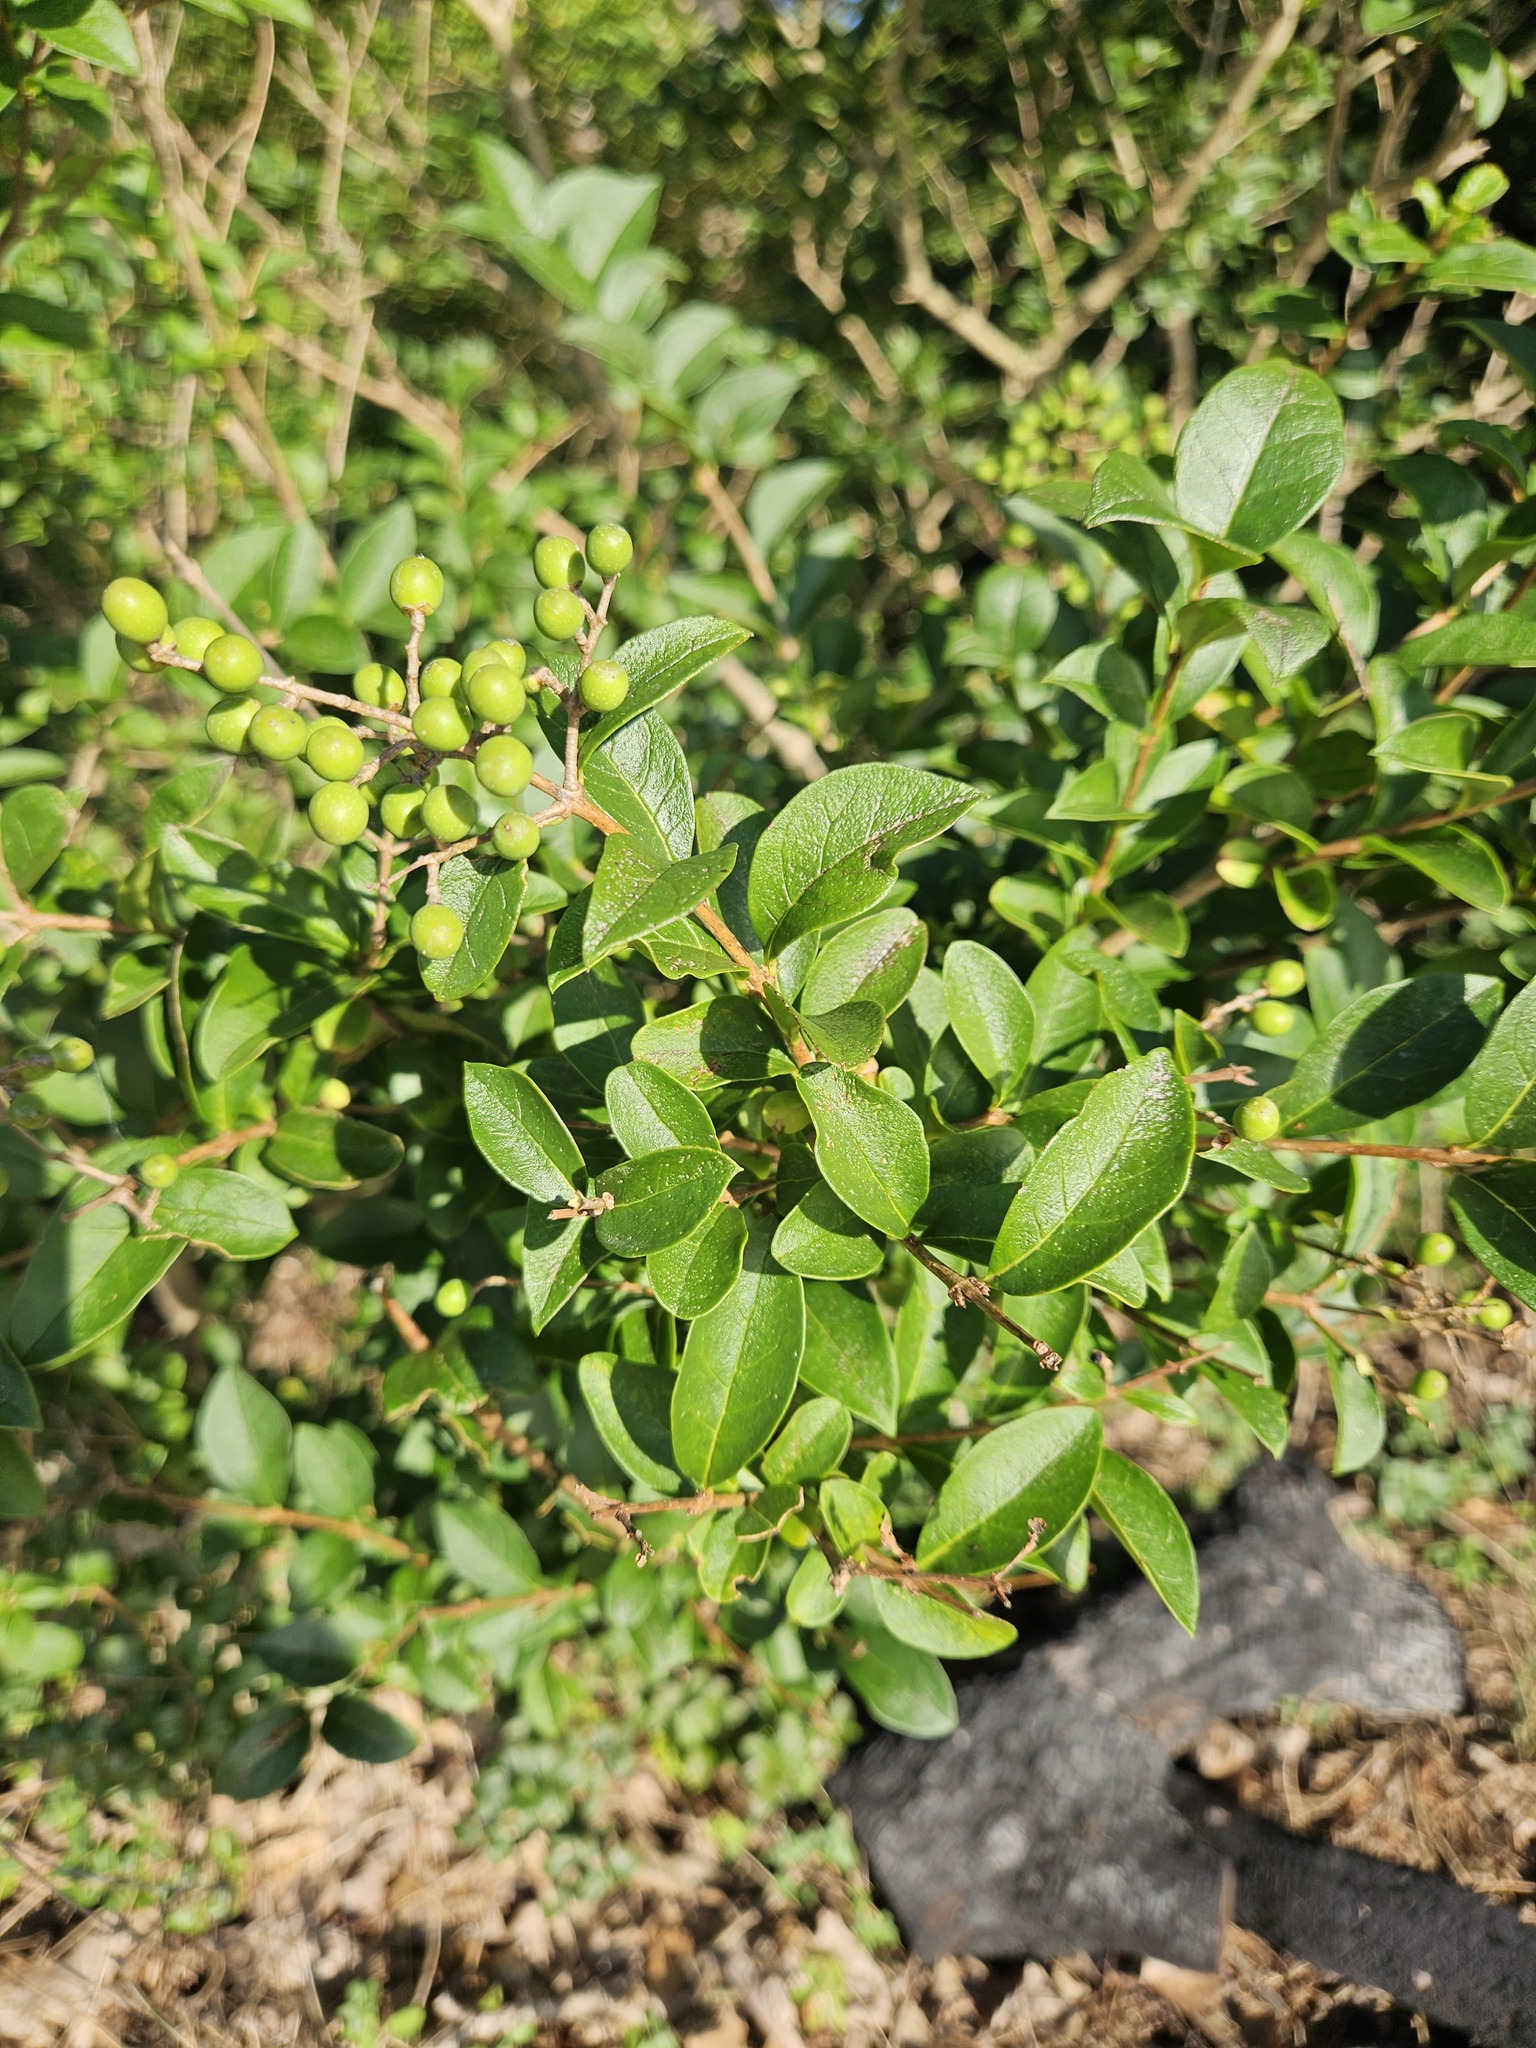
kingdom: Plantae
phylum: Tracheophyta
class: Magnoliopsida
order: Lamiales
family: Oleaceae
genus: Ligustrum
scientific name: Ligustrum ovalifolium
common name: California privet
